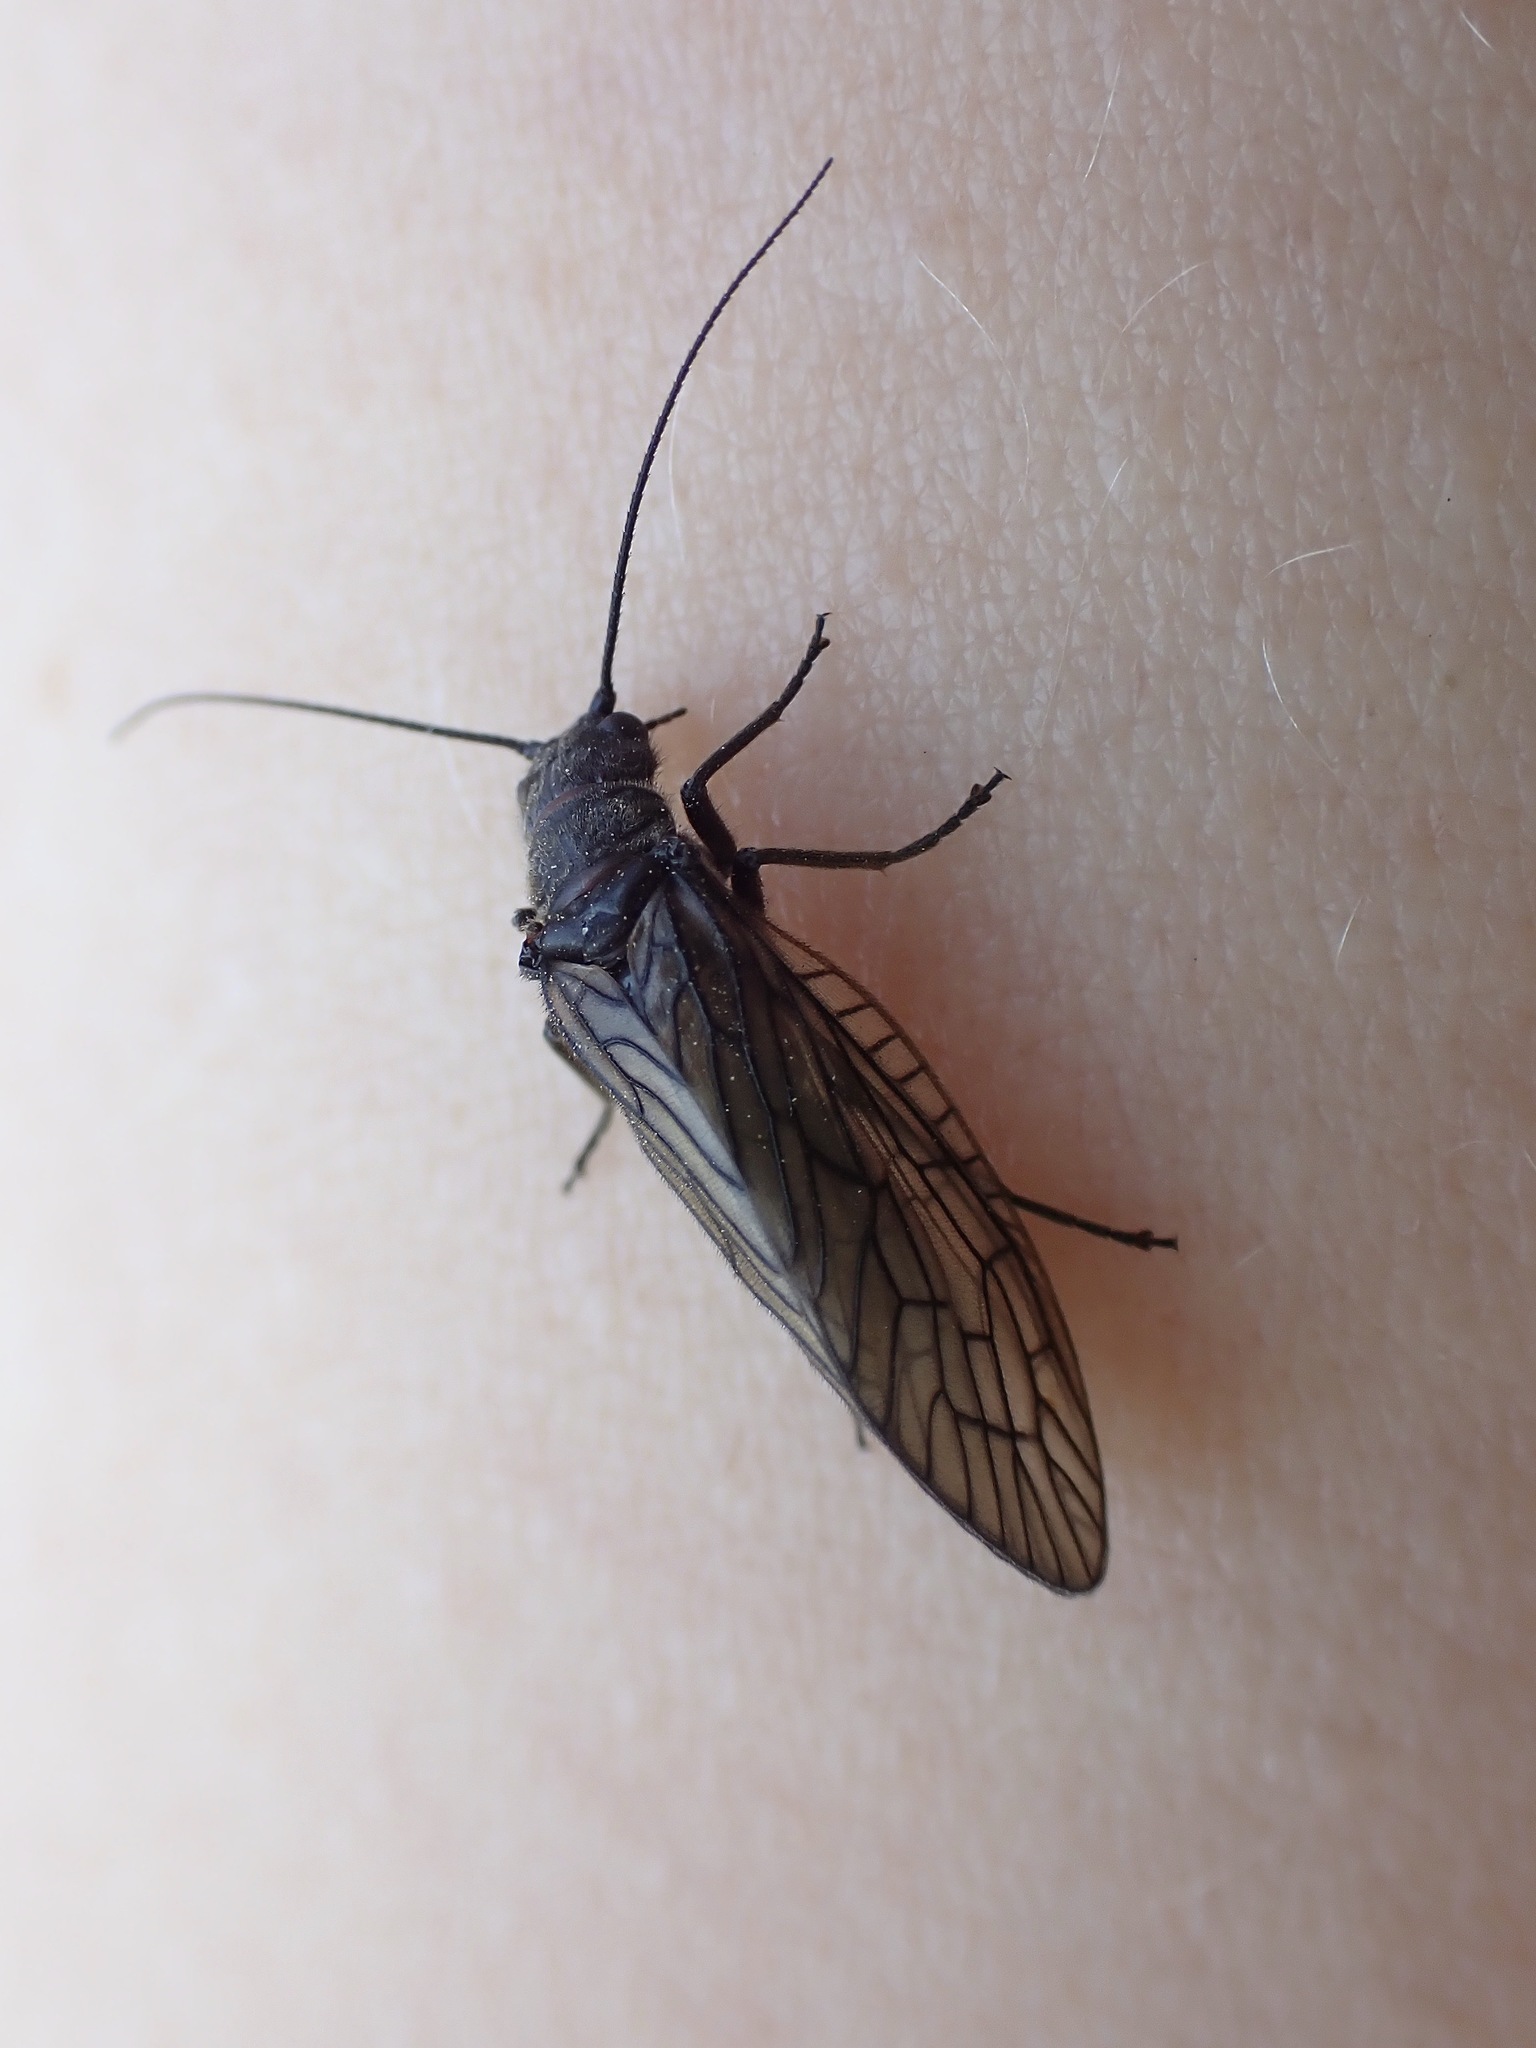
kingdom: Animalia
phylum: Arthropoda
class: Insecta
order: Megaloptera
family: Sialidae
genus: Sialis
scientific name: Sialis
